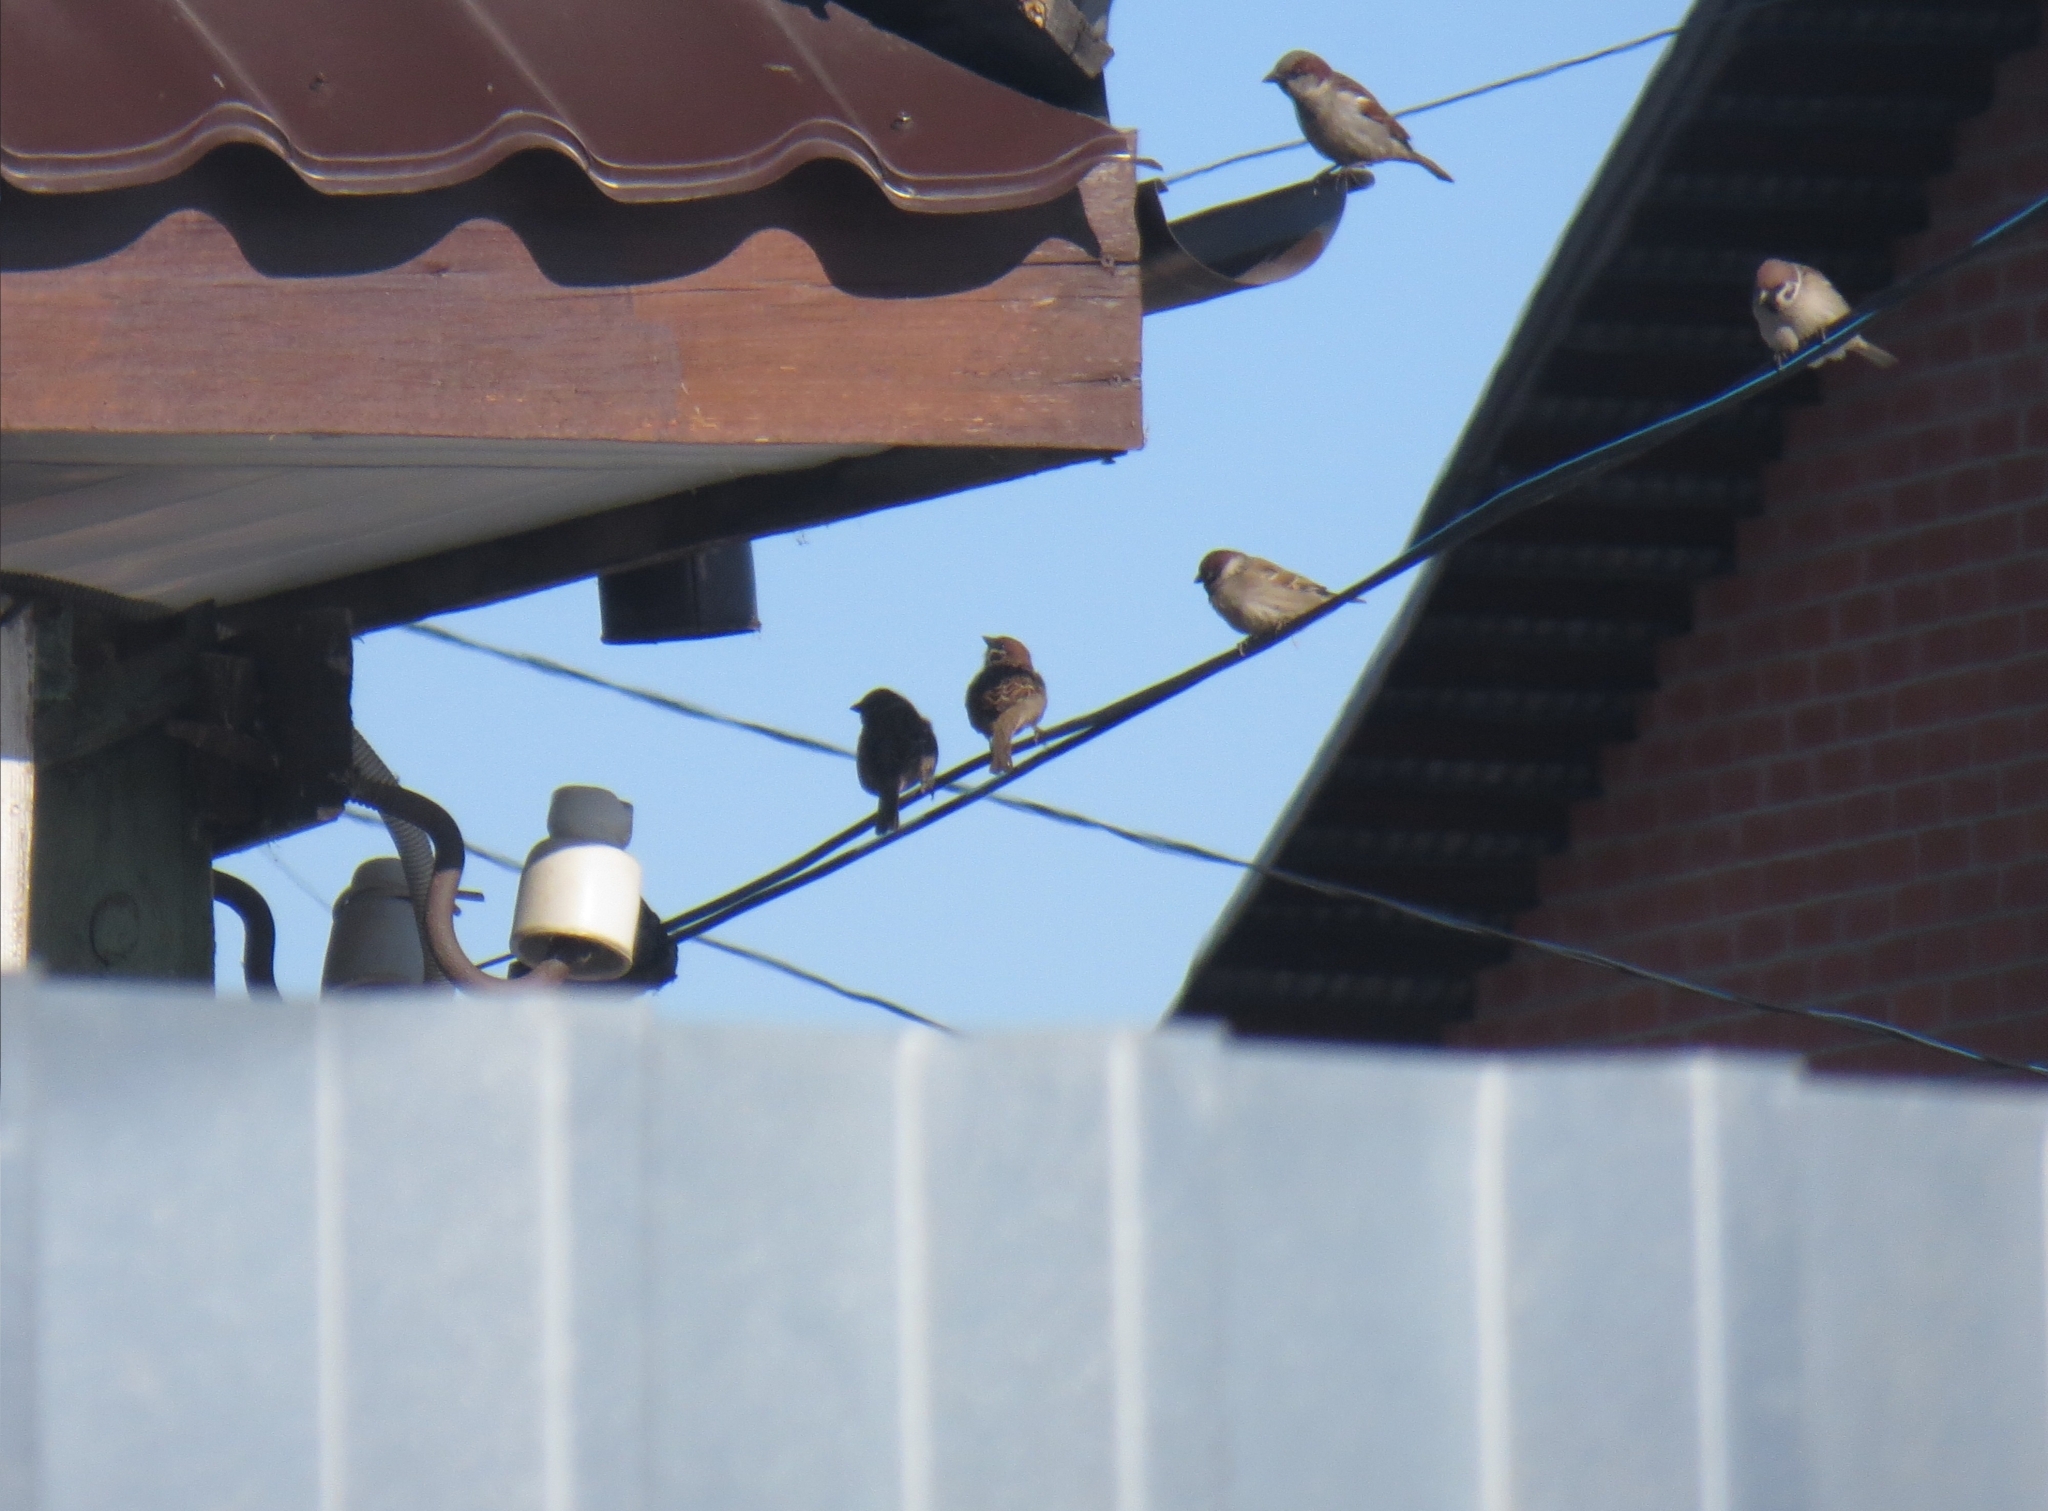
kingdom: Animalia
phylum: Chordata
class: Aves
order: Passeriformes
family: Passeridae
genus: Passer
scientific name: Passer montanus
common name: Eurasian tree sparrow
